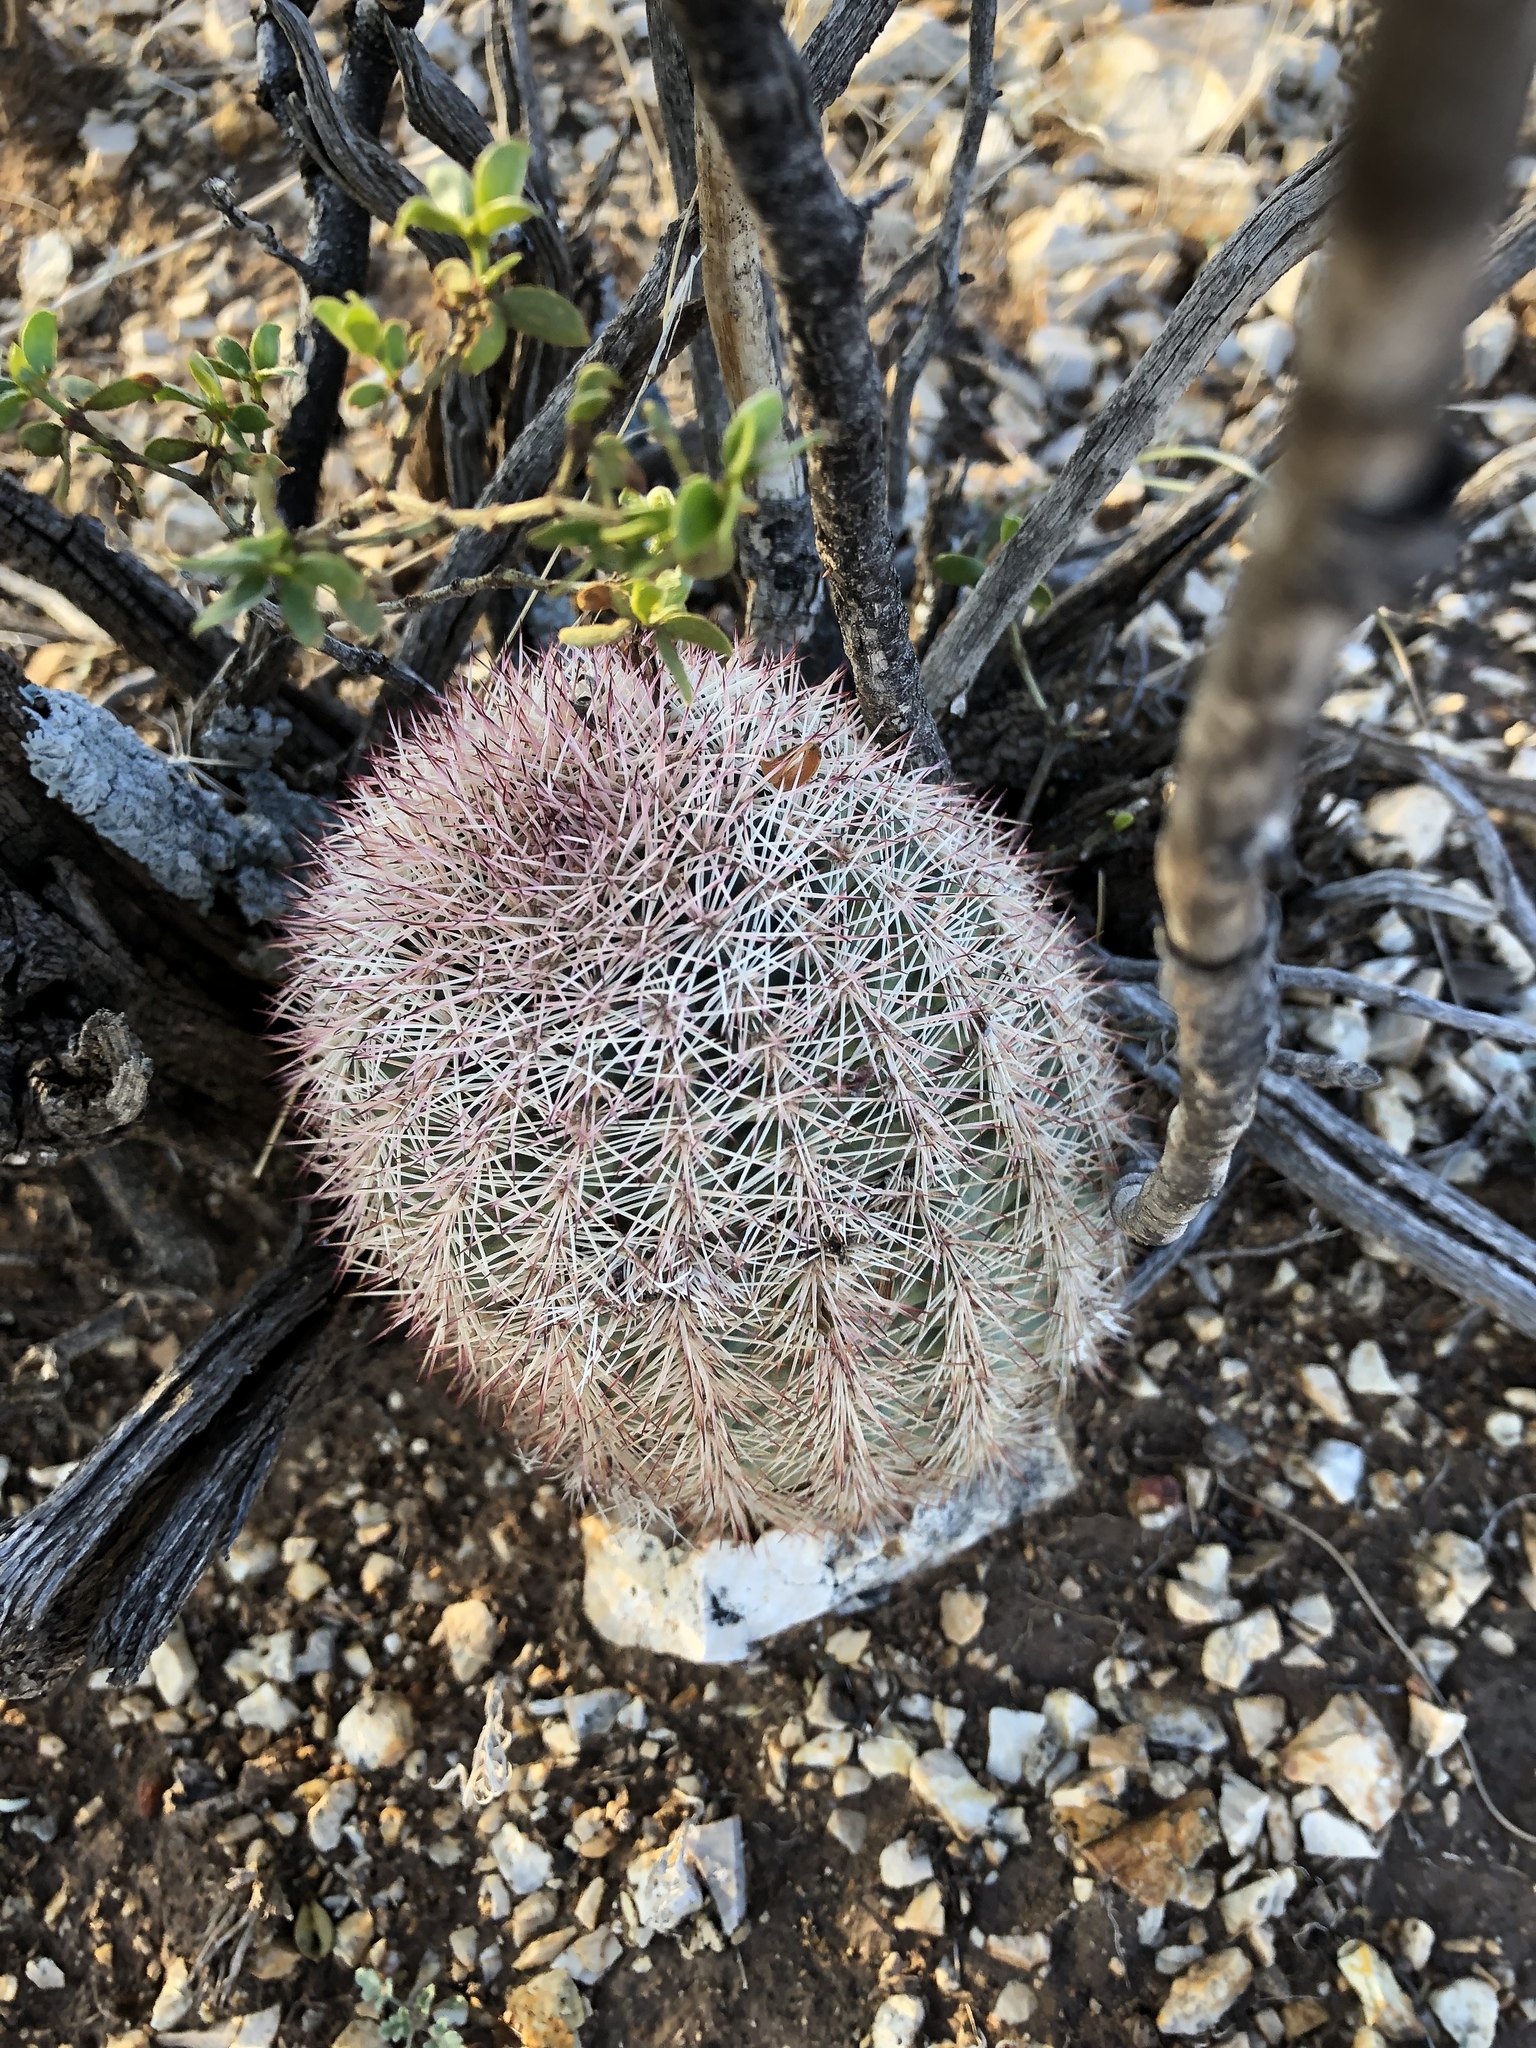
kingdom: Plantae
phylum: Tracheophyta
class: Magnoliopsida
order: Caryophyllales
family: Cactaceae
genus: Echinocereus
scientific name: Echinocereus dasyacanthus
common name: Spiny hedgehog cactus
